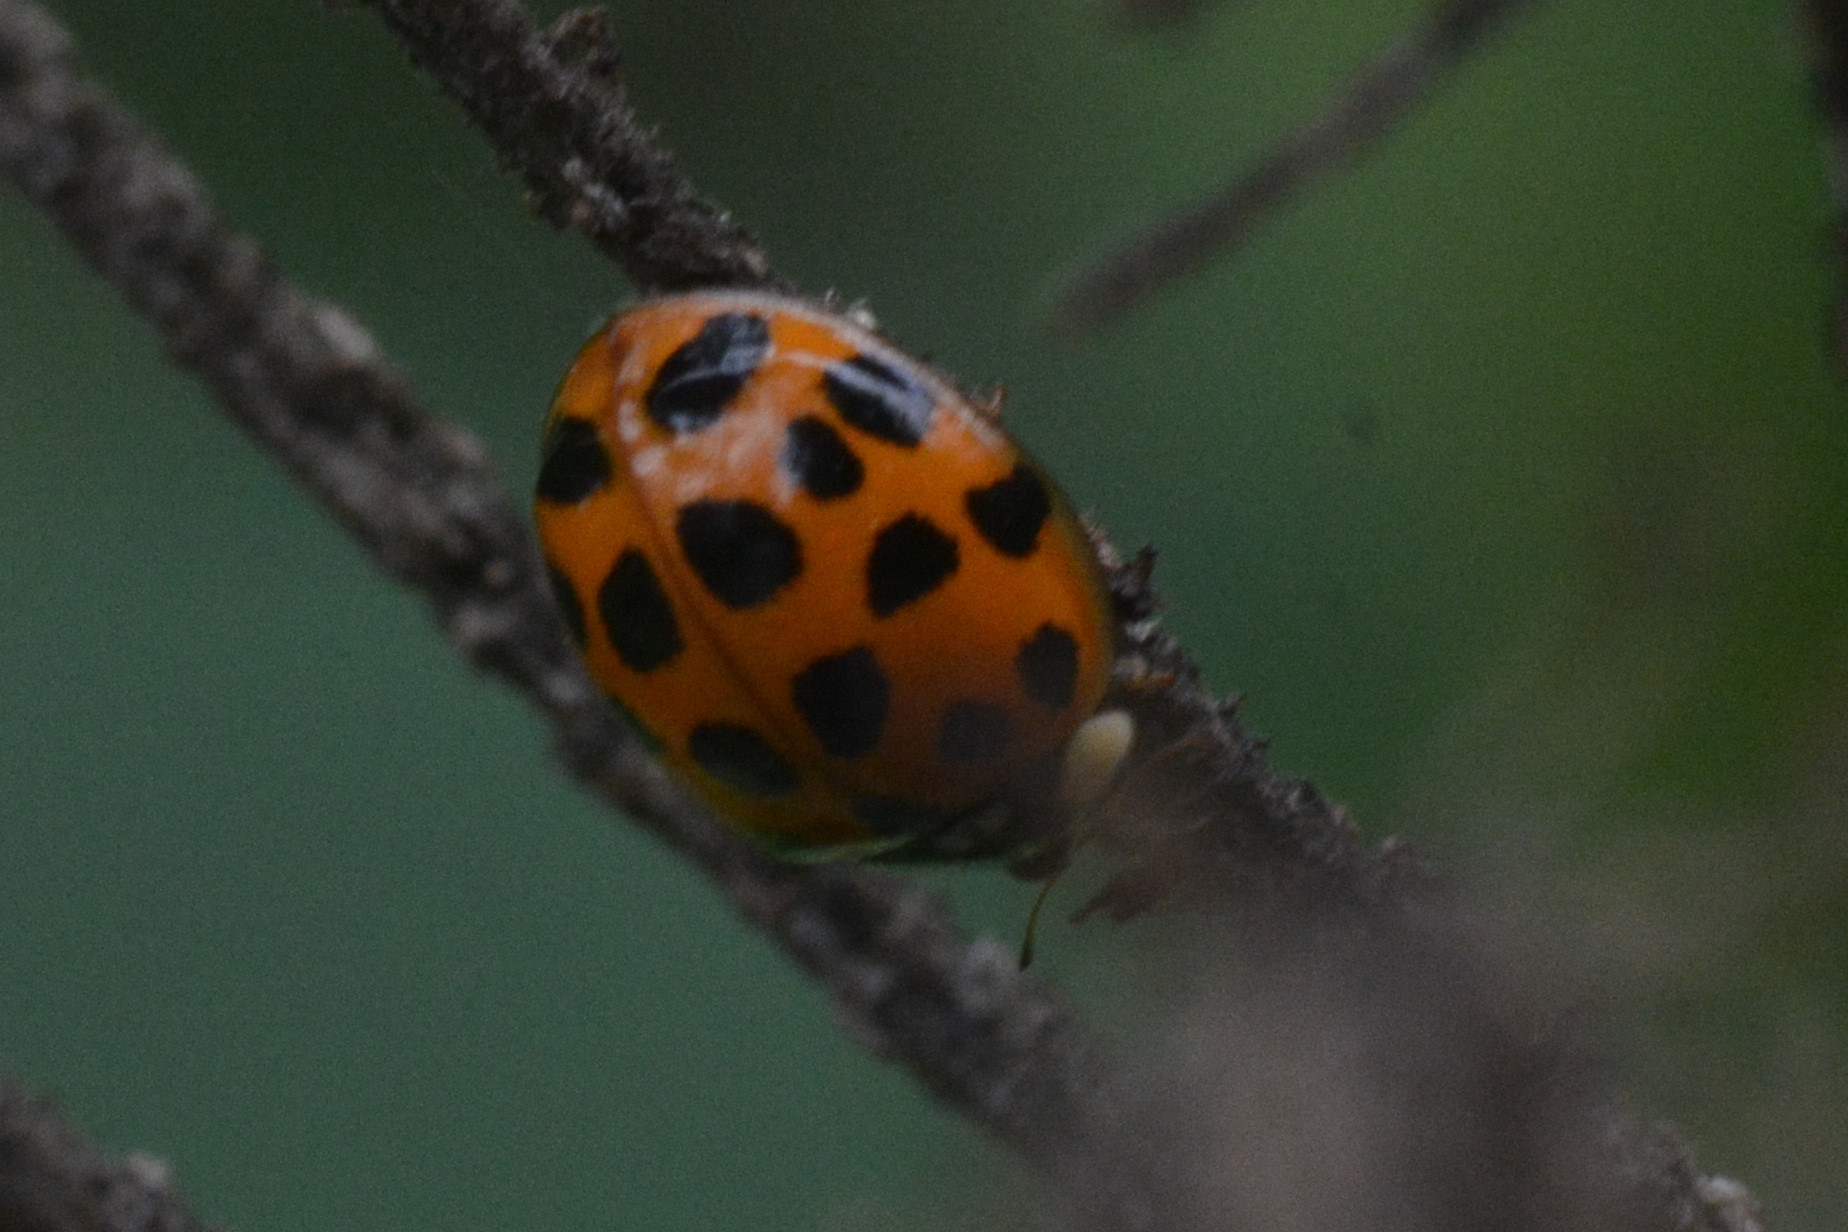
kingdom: Animalia
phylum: Arthropoda
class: Insecta
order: Coleoptera
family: Coccinellidae
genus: Harmonia
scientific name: Harmonia axyridis
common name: Harlequin ladybird
